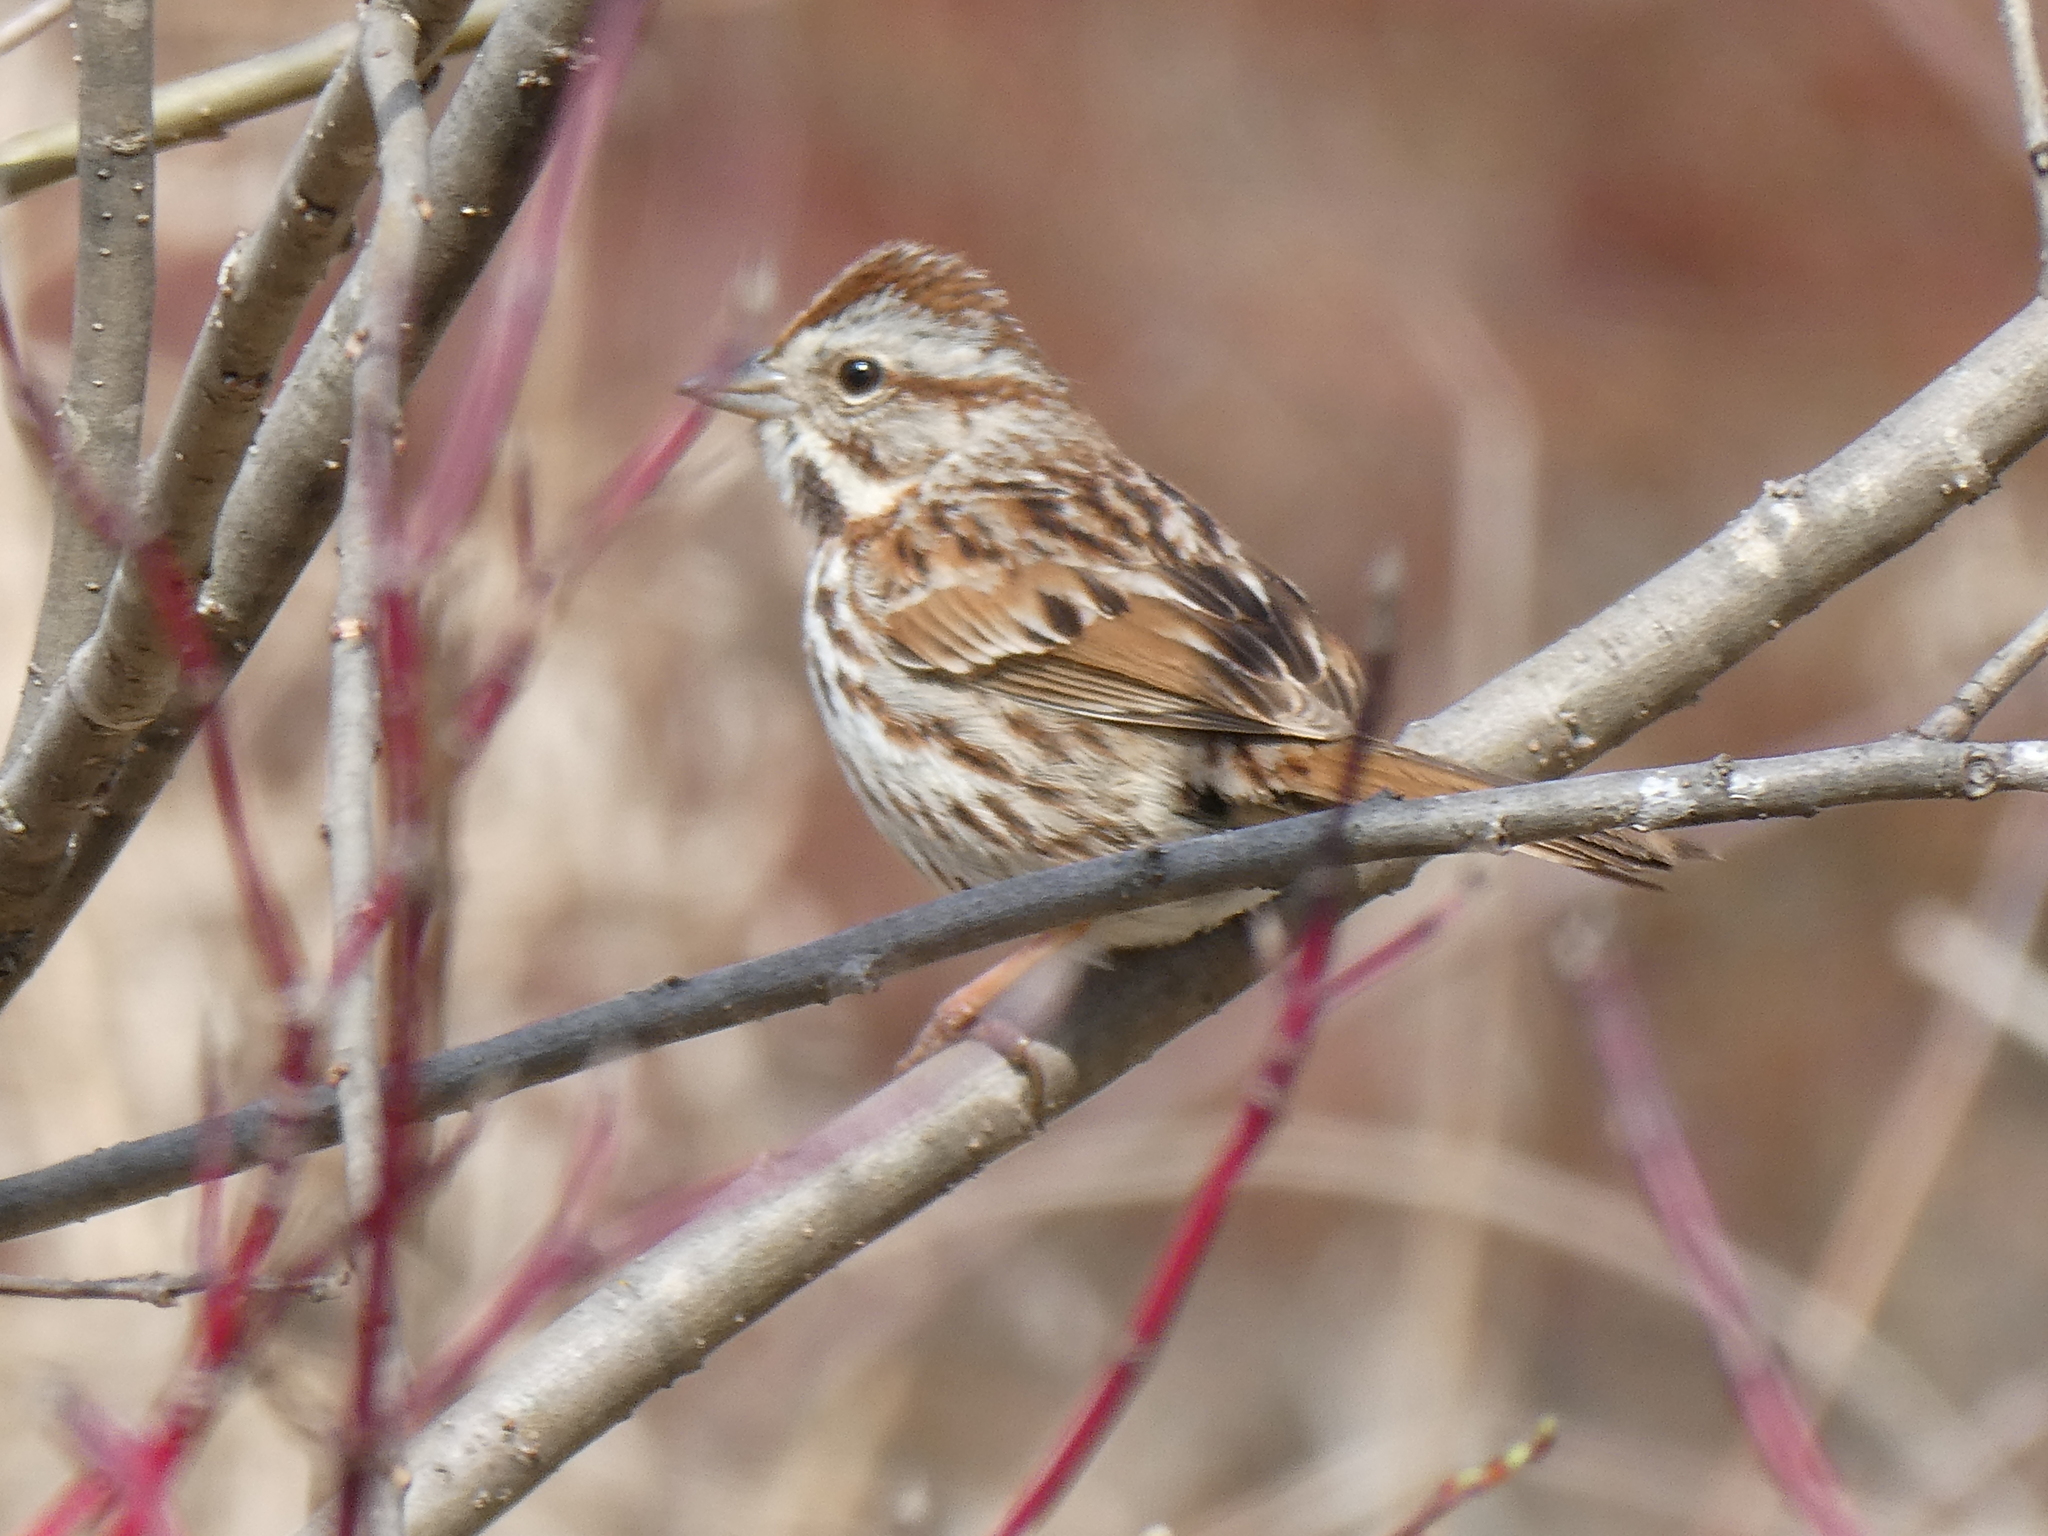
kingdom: Animalia
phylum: Chordata
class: Aves
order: Passeriformes
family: Passerellidae
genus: Melospiza
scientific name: Melospiza melodia
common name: Song sparrow
